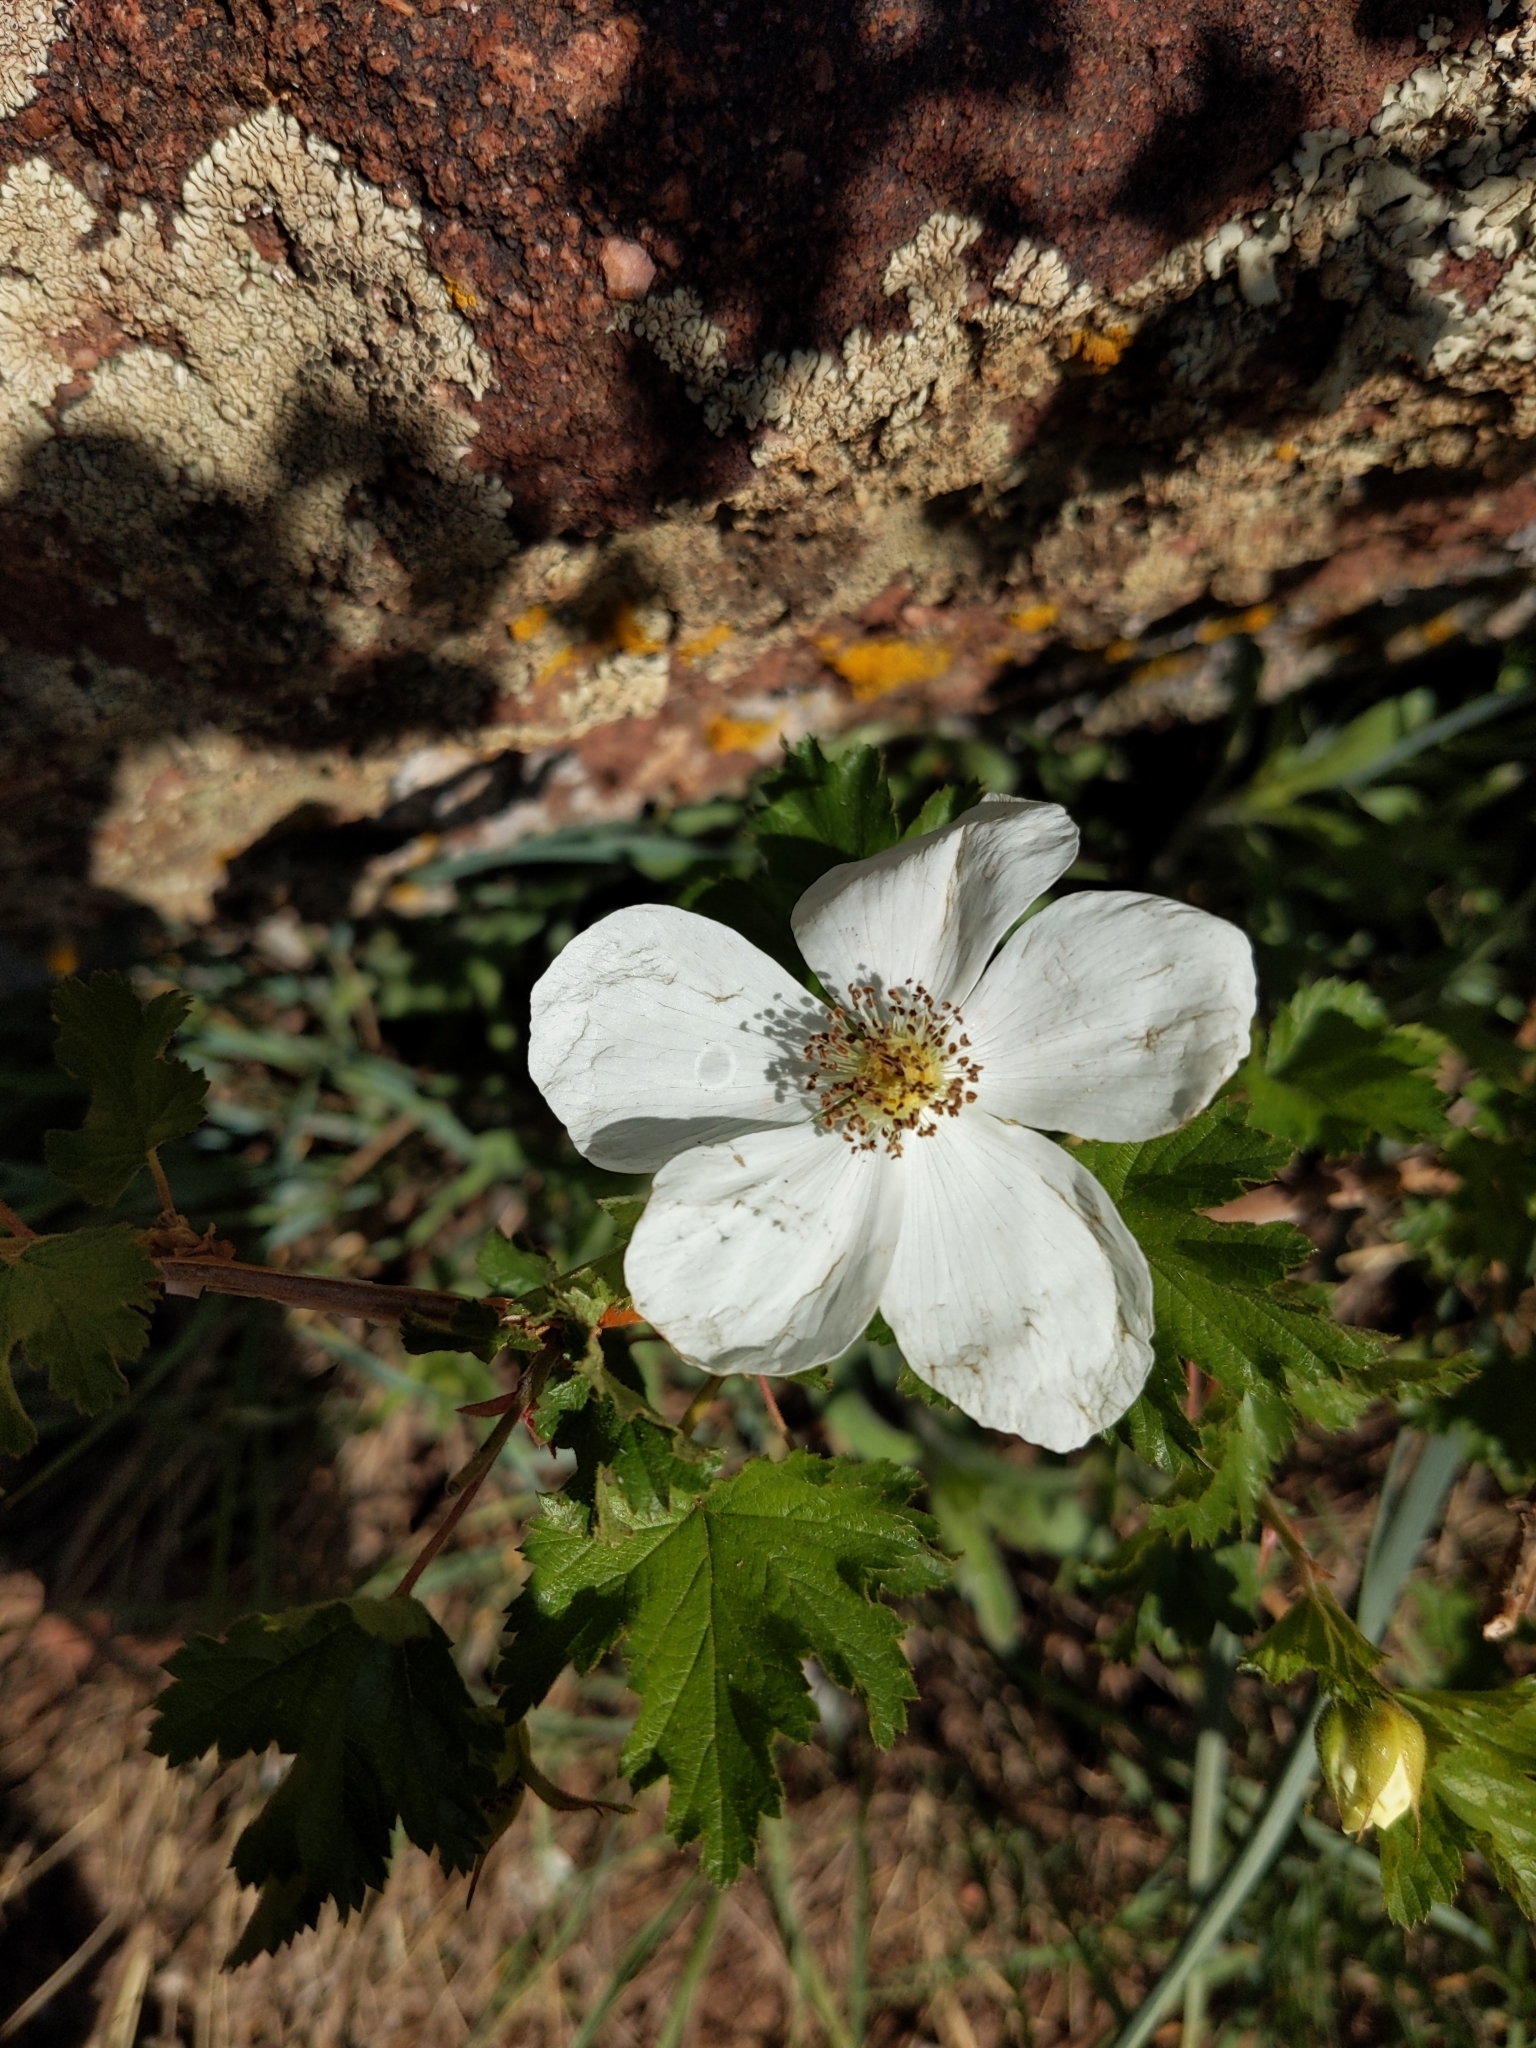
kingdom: Plantae
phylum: Tracheophyta
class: Magnoliopsida
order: Rosales
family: Rosaceae
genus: Rubus
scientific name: Rubus deliciosus
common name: Rocky mountain raspberry
